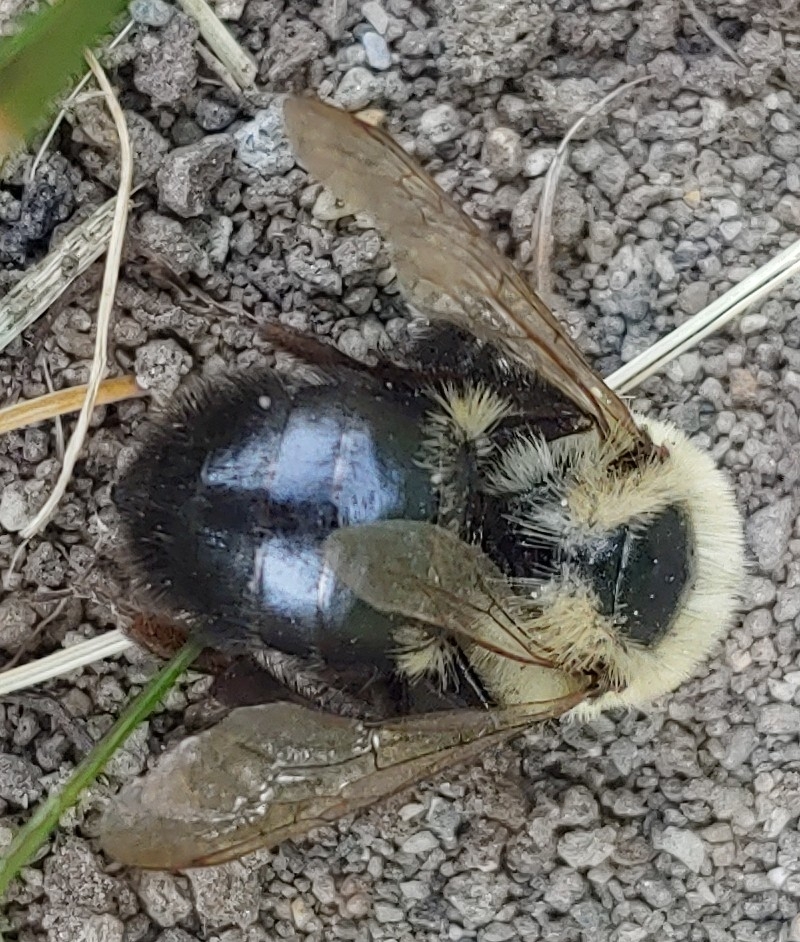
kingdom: Animalia
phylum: Arthropoda
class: Insecta
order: Hymenoptera
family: Apidae
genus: Bombus
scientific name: Bombus impatiens
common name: Common eastern bumble bee
